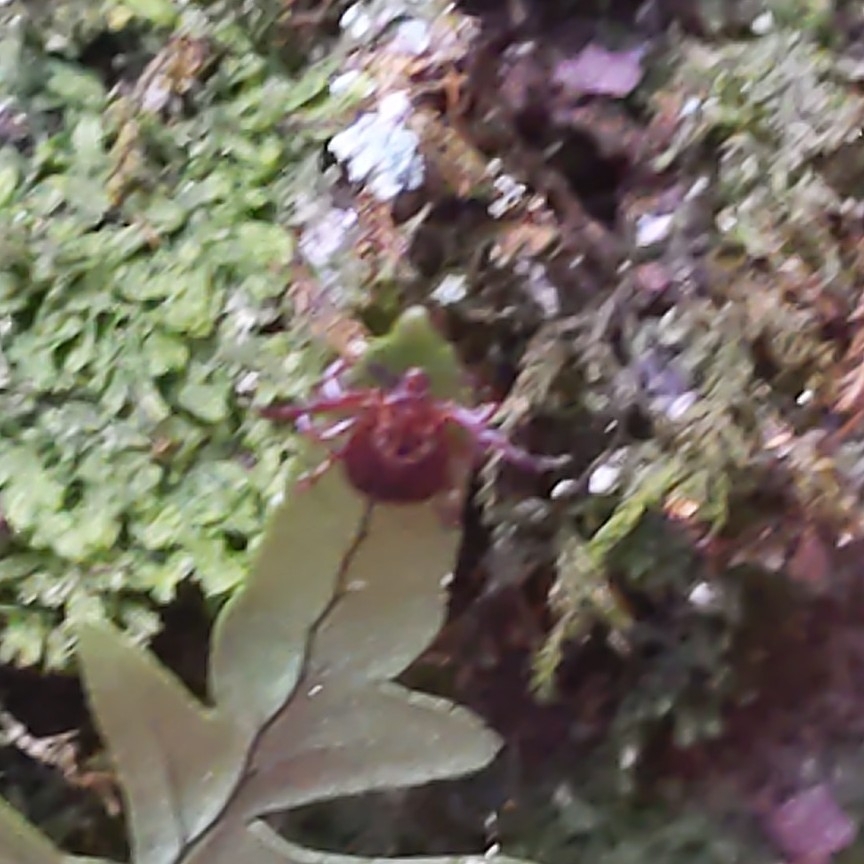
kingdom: Animalia
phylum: Arthropoda
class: Arachnida
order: Ixodida
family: Ixodidae
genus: Dermacentor
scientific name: Dermacentor variabilis
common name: American dog tick
